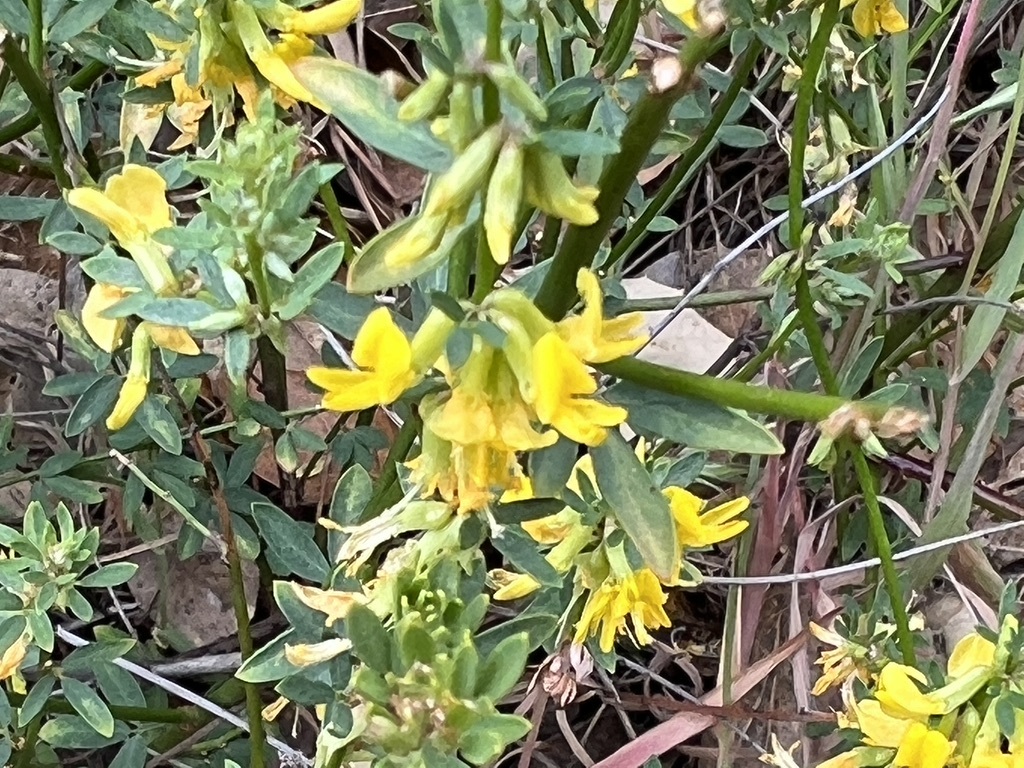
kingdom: Plantae
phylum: Tracheophyta
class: Magnoliopsida
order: Fabales
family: Fabaceae
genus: Acmispon
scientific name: Acmispon glaber
